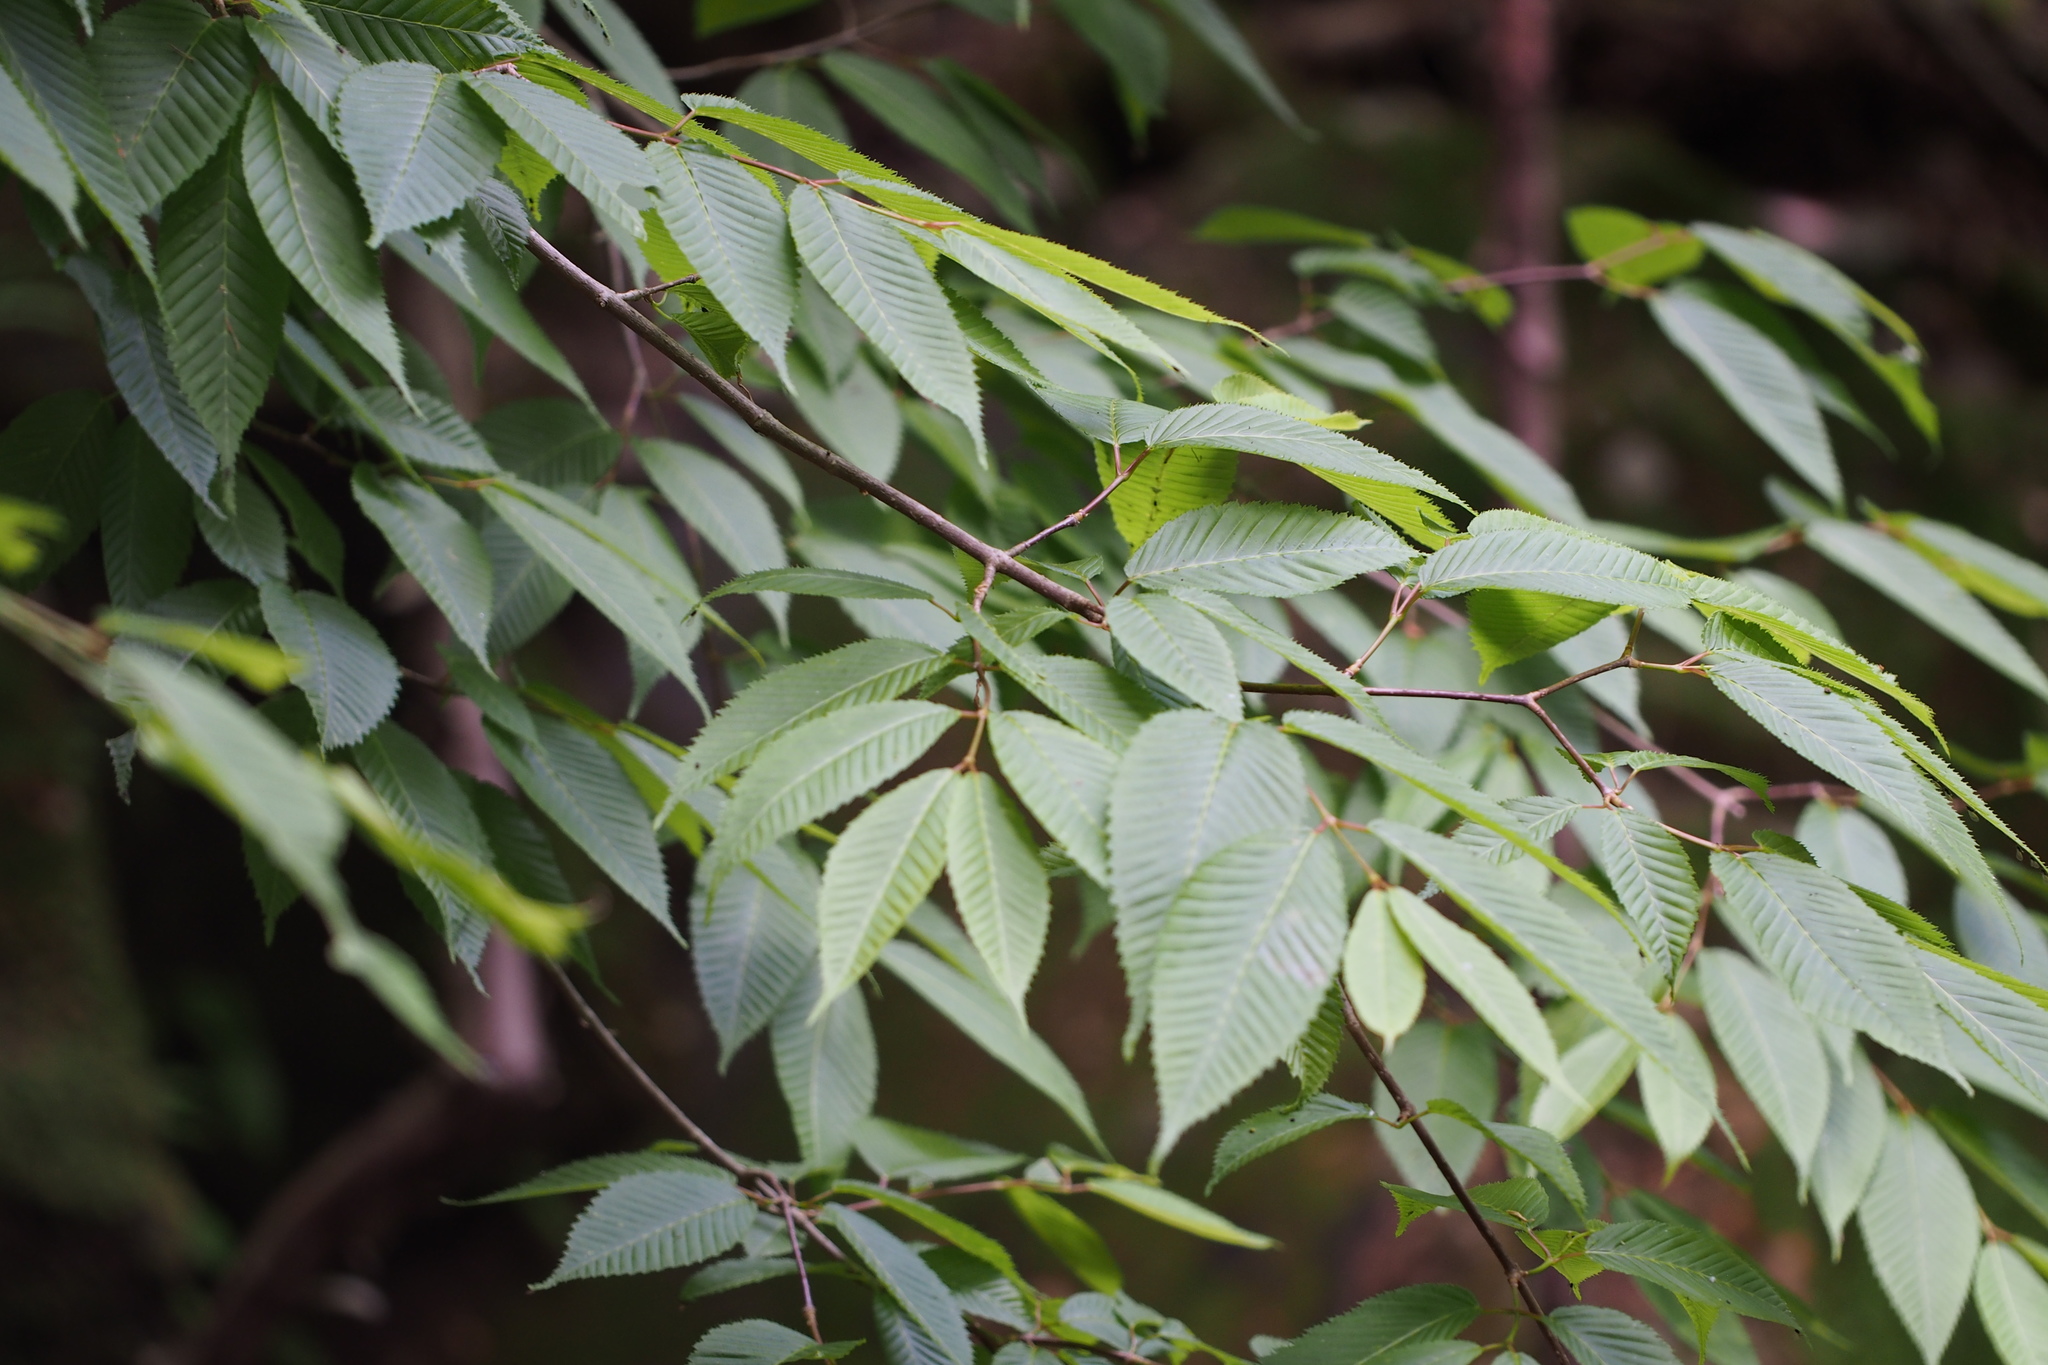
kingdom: Plantae
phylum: Tracheophyta
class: Magnoliopsida
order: Sapindales
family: Sapindaceae
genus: Acer
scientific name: Acer carpinifolium
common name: Hornbeam maple
